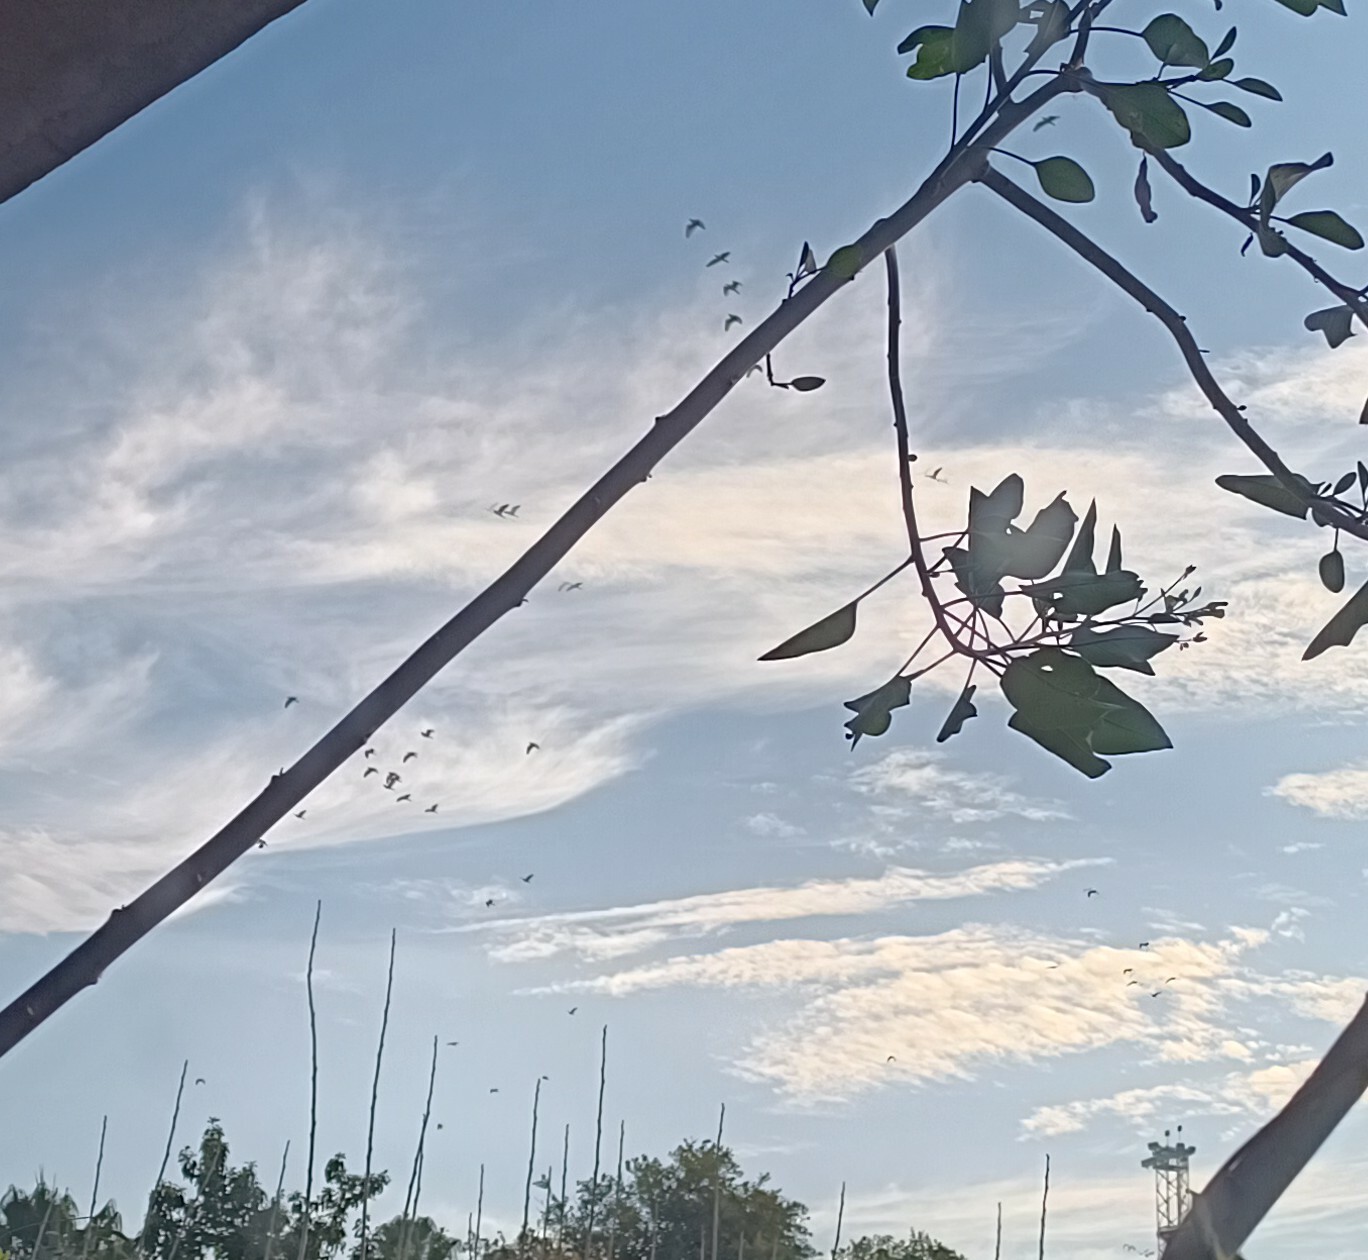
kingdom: Animalia
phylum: Chordata
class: Aves
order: Pelecaniformes
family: Ardeidae
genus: Bubulcus
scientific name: Bubulcus ibis
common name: Cattle egret
